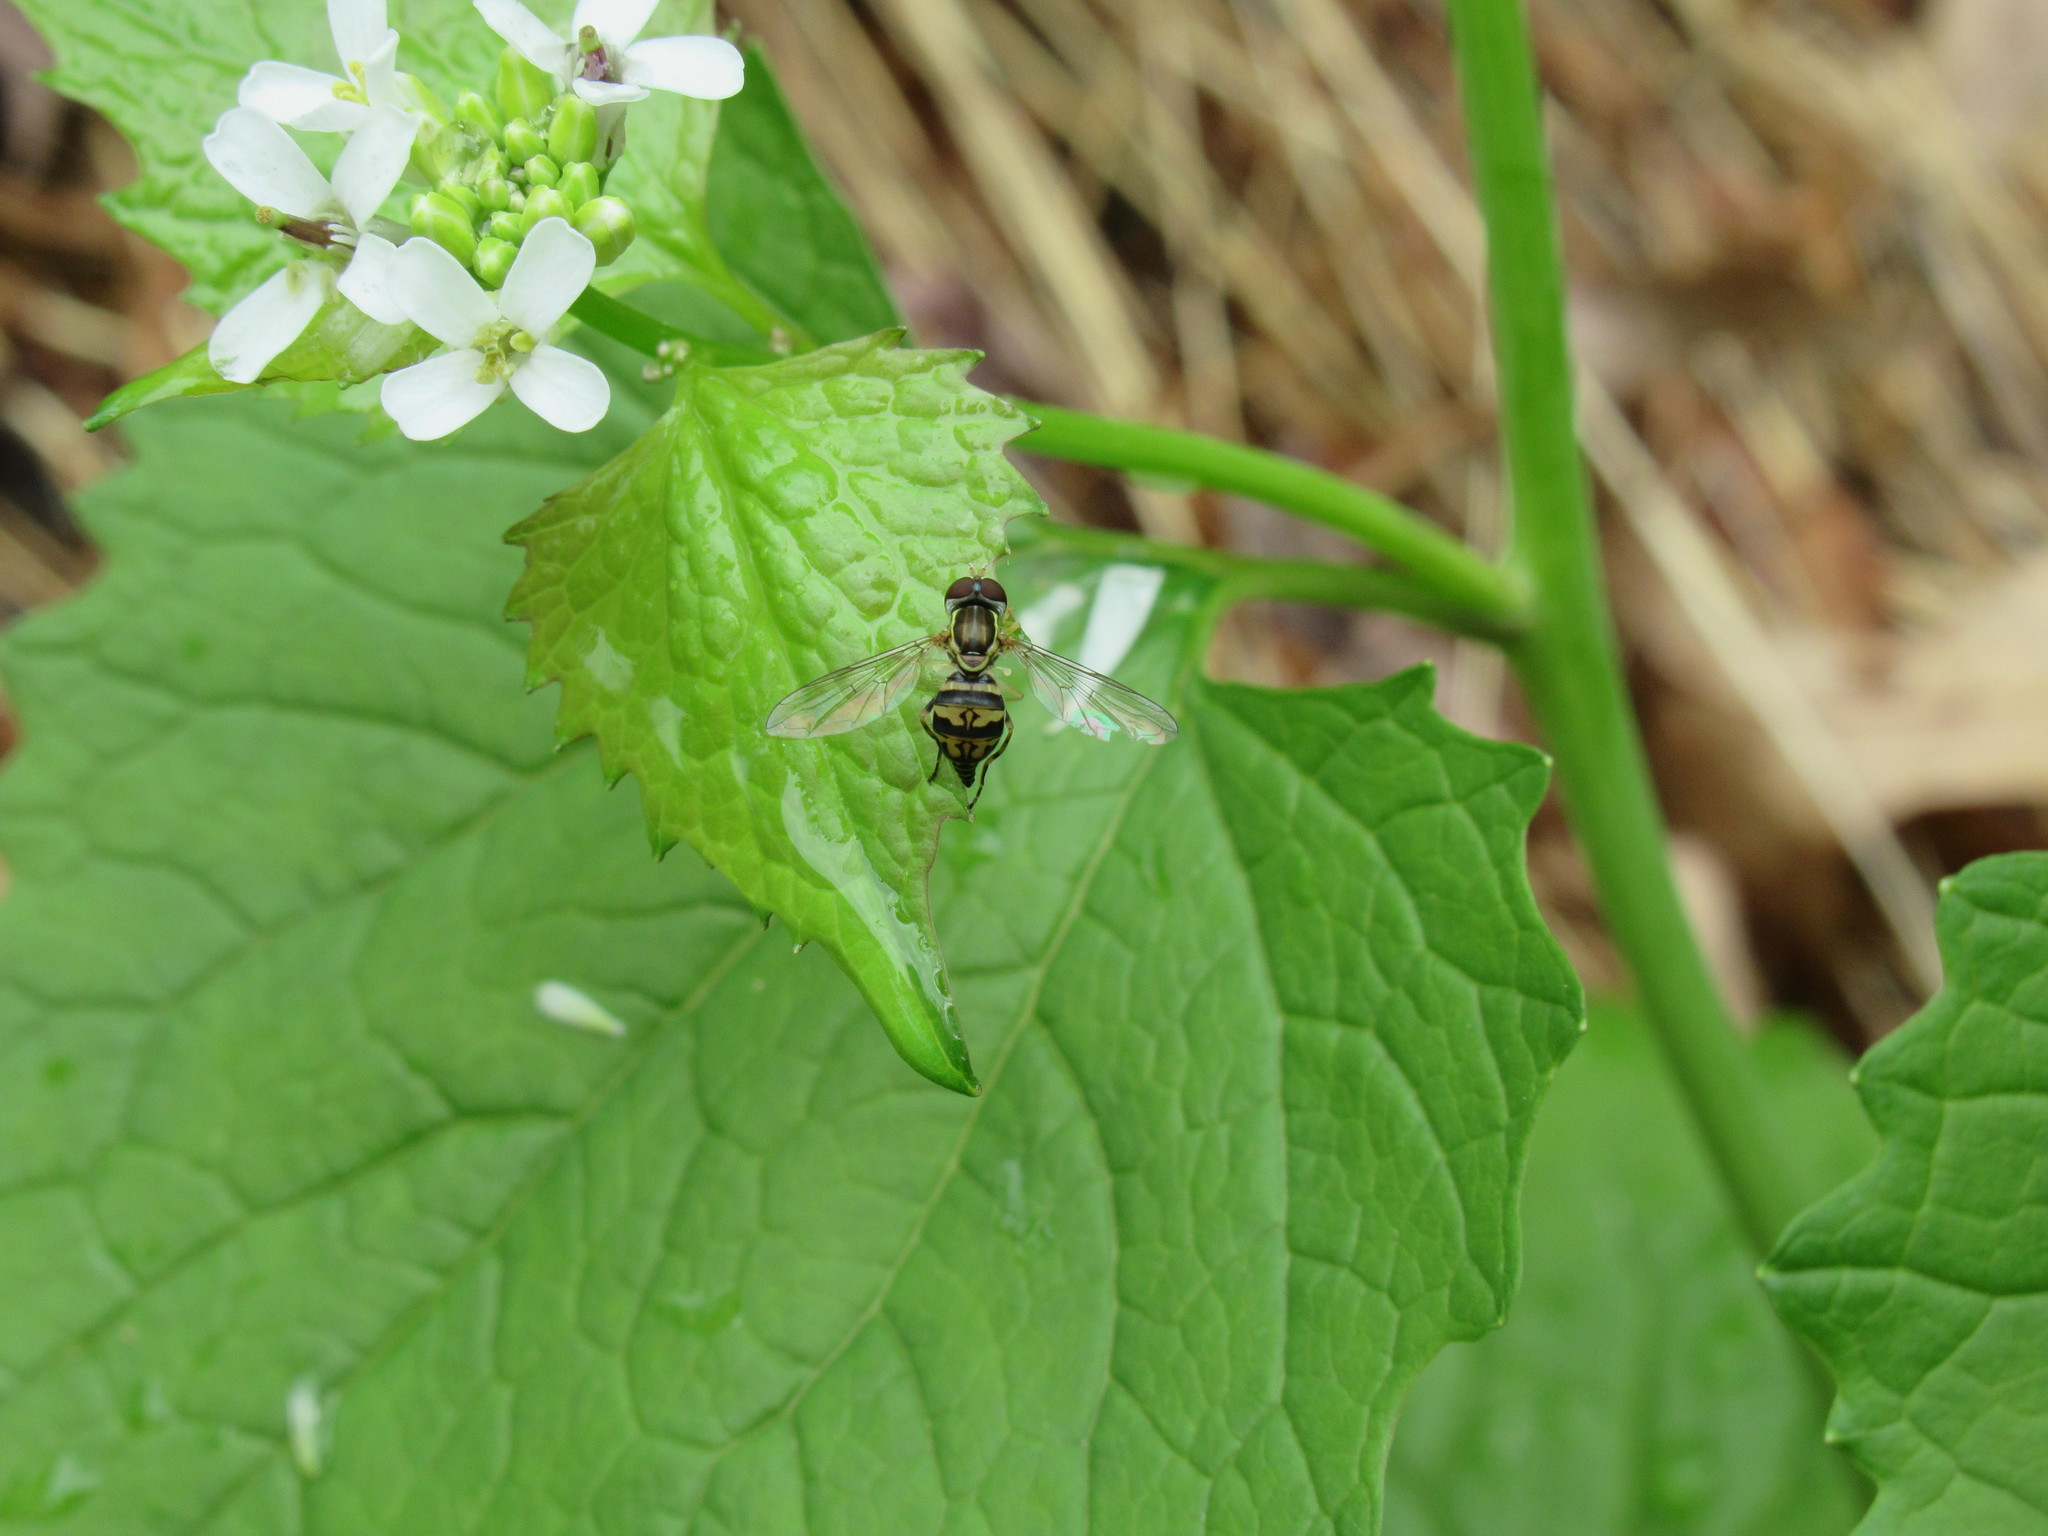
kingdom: Animalia
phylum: Arthropoda
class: Insecta
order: Diptera
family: Syrphidae
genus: Toxomerus
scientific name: Toxomerus geminatus
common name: Eastern calligrapher
